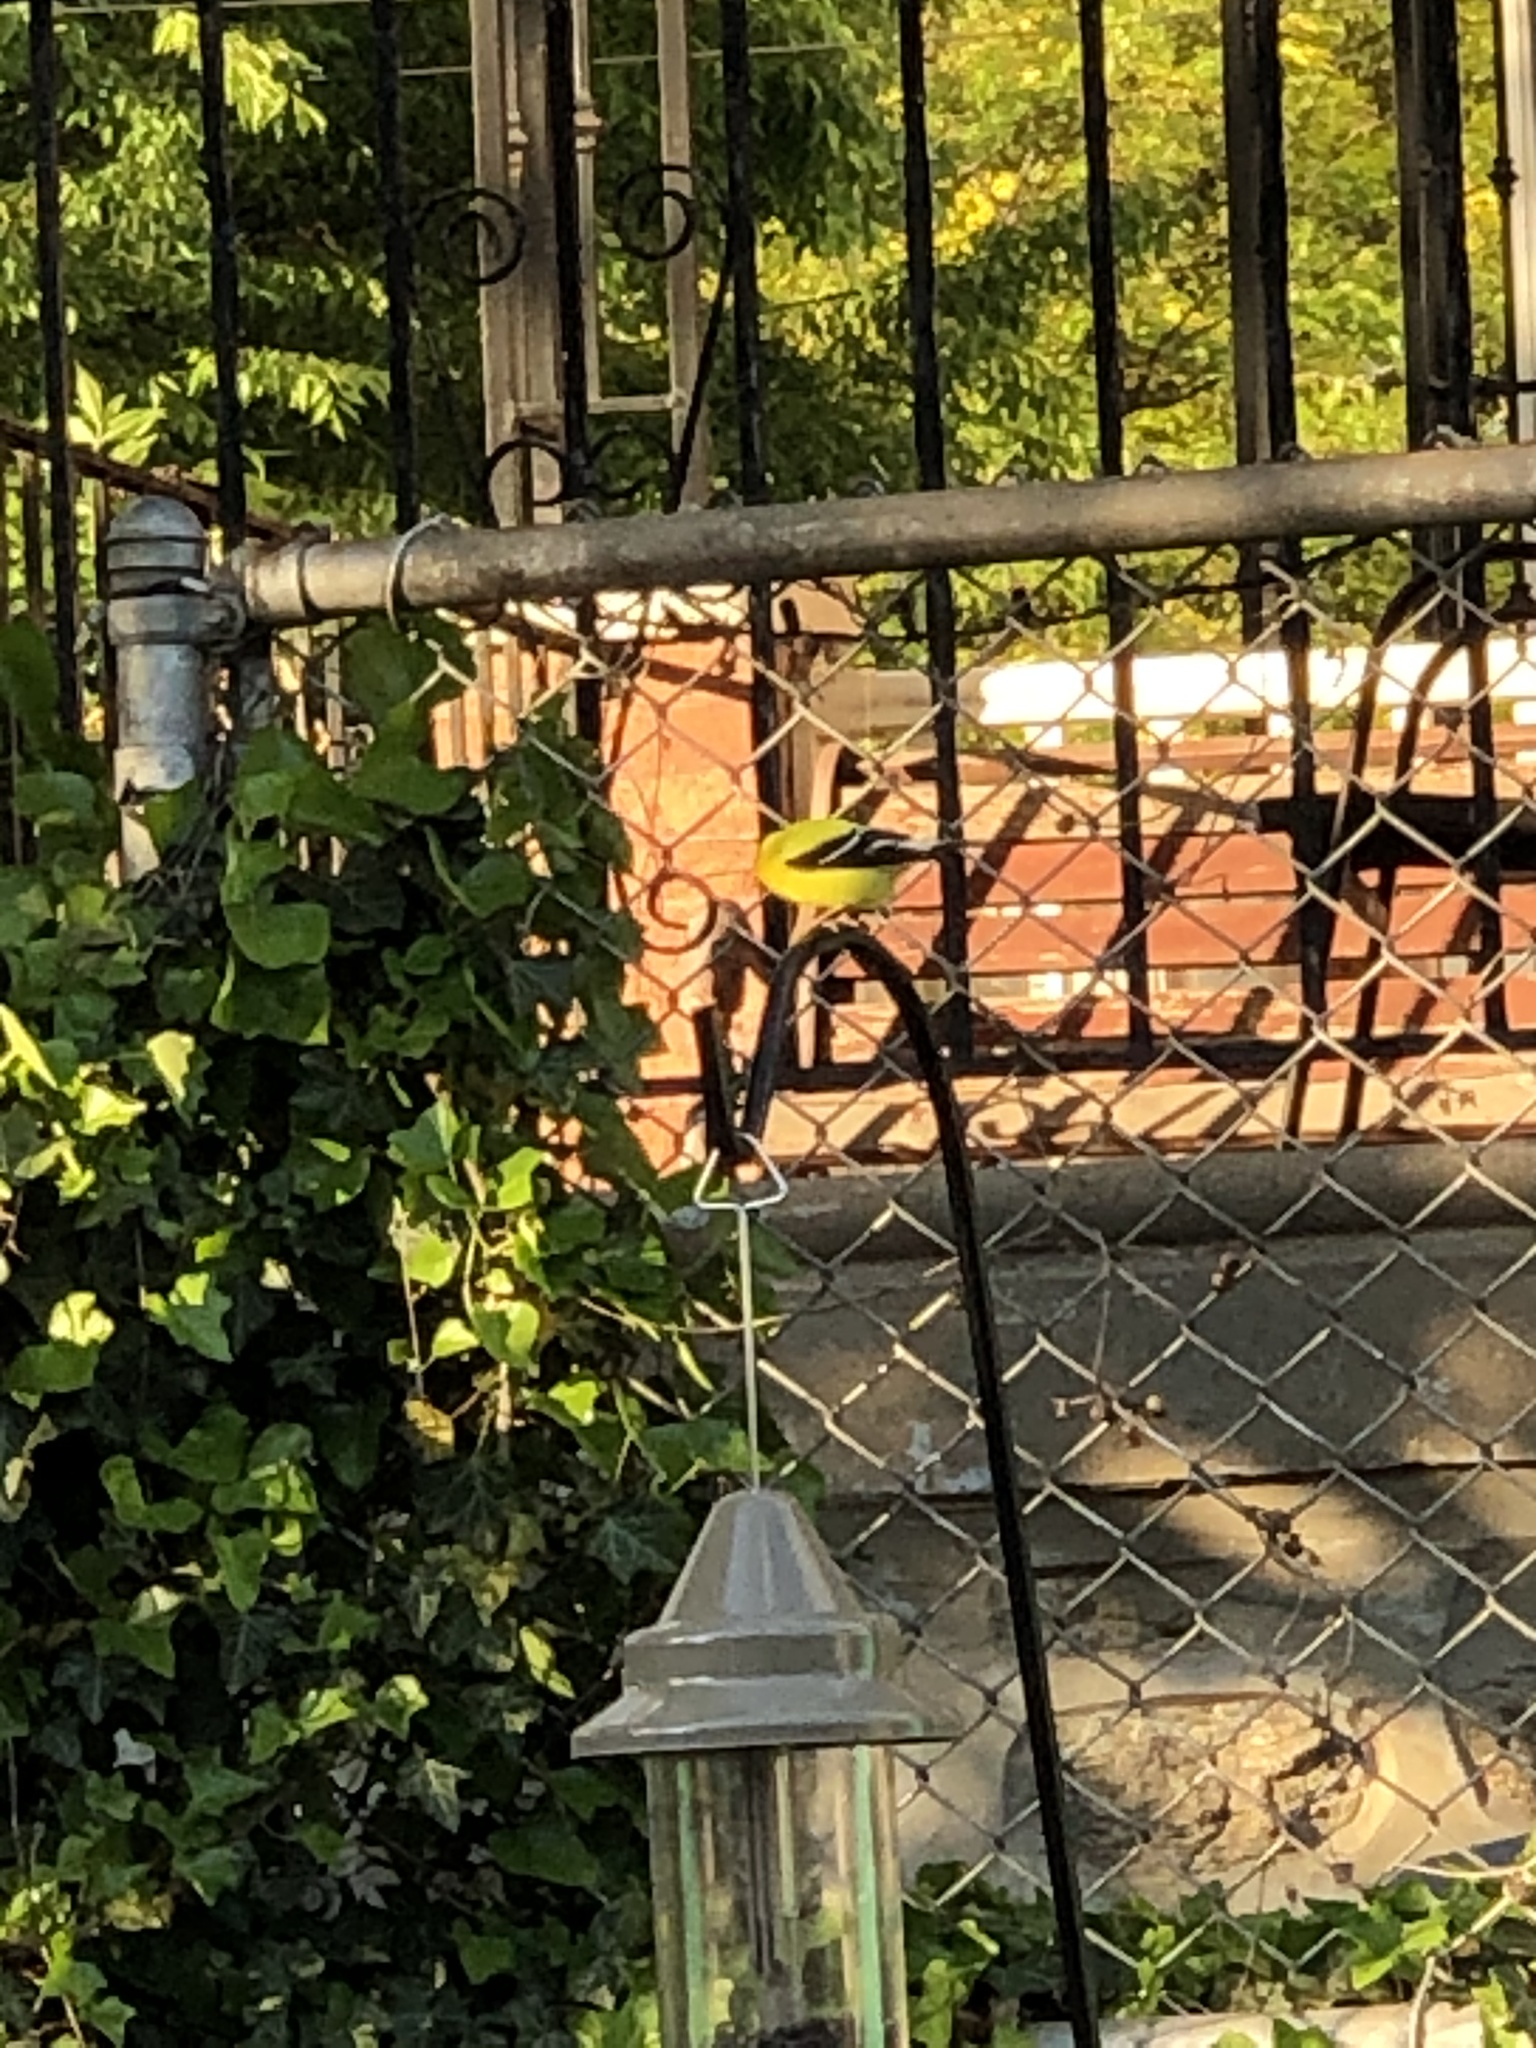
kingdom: Animalia
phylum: Chordata
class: Aves
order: Passeriformes
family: Fringillidae
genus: Spinus
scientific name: Spinus tristis
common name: American goldfinch
